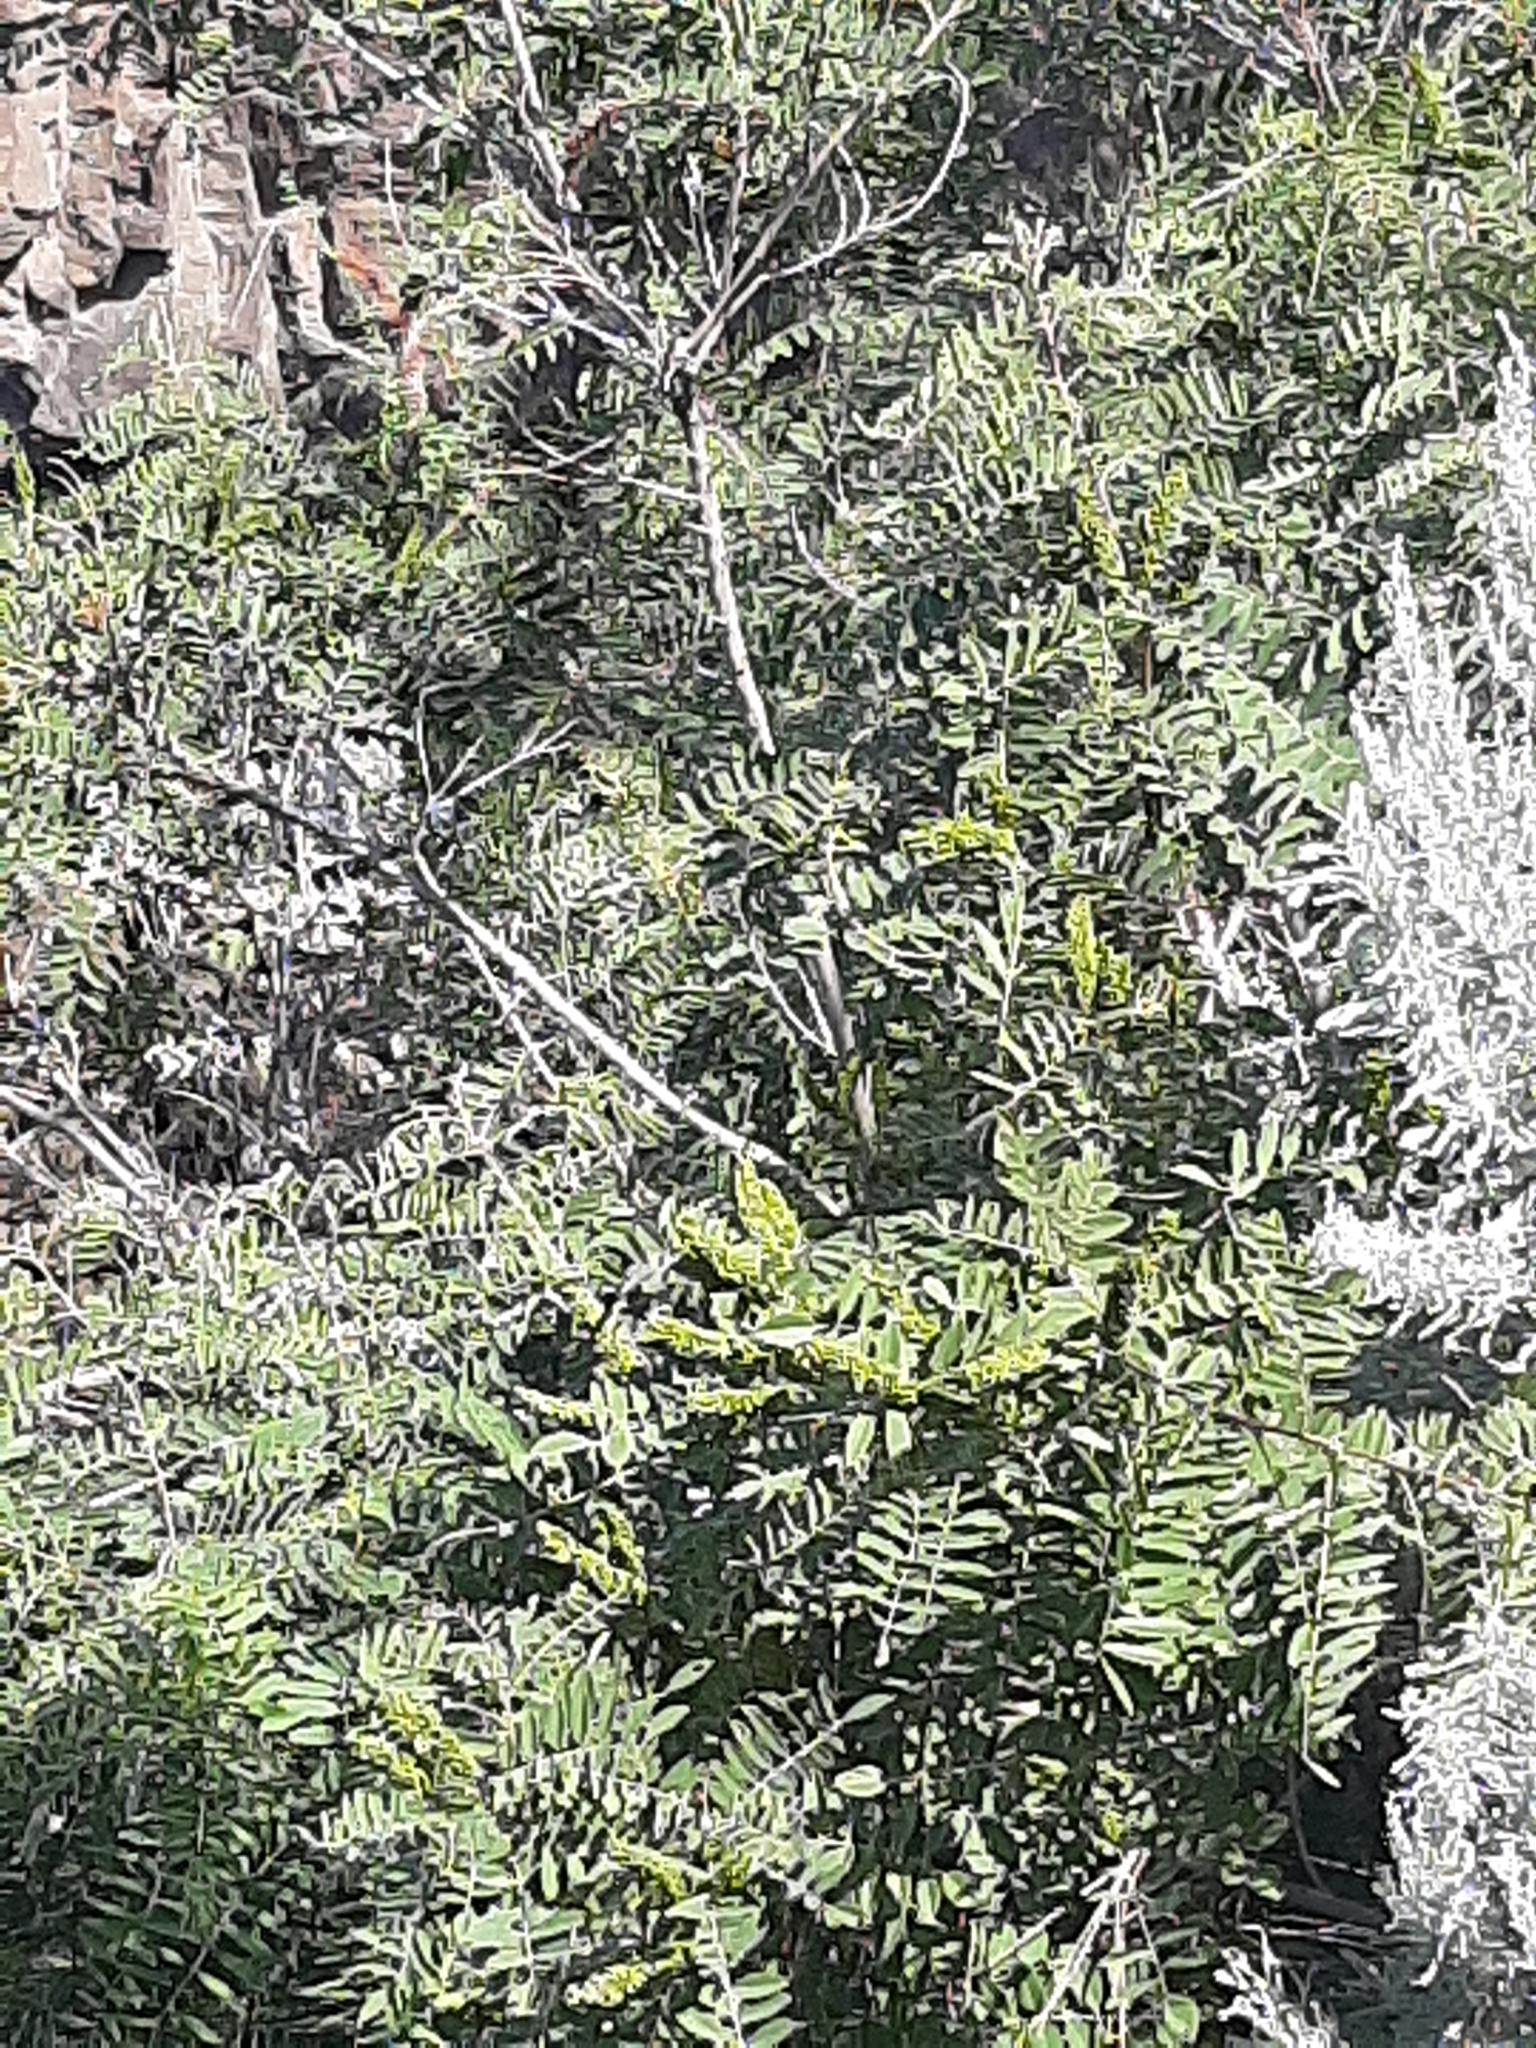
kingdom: Plantae
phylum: Tracheophyta
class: Magnoliopsida
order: Fabales
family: Fabaceae
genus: Amorpha
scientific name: Amorpha fruticosa
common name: False indigo
